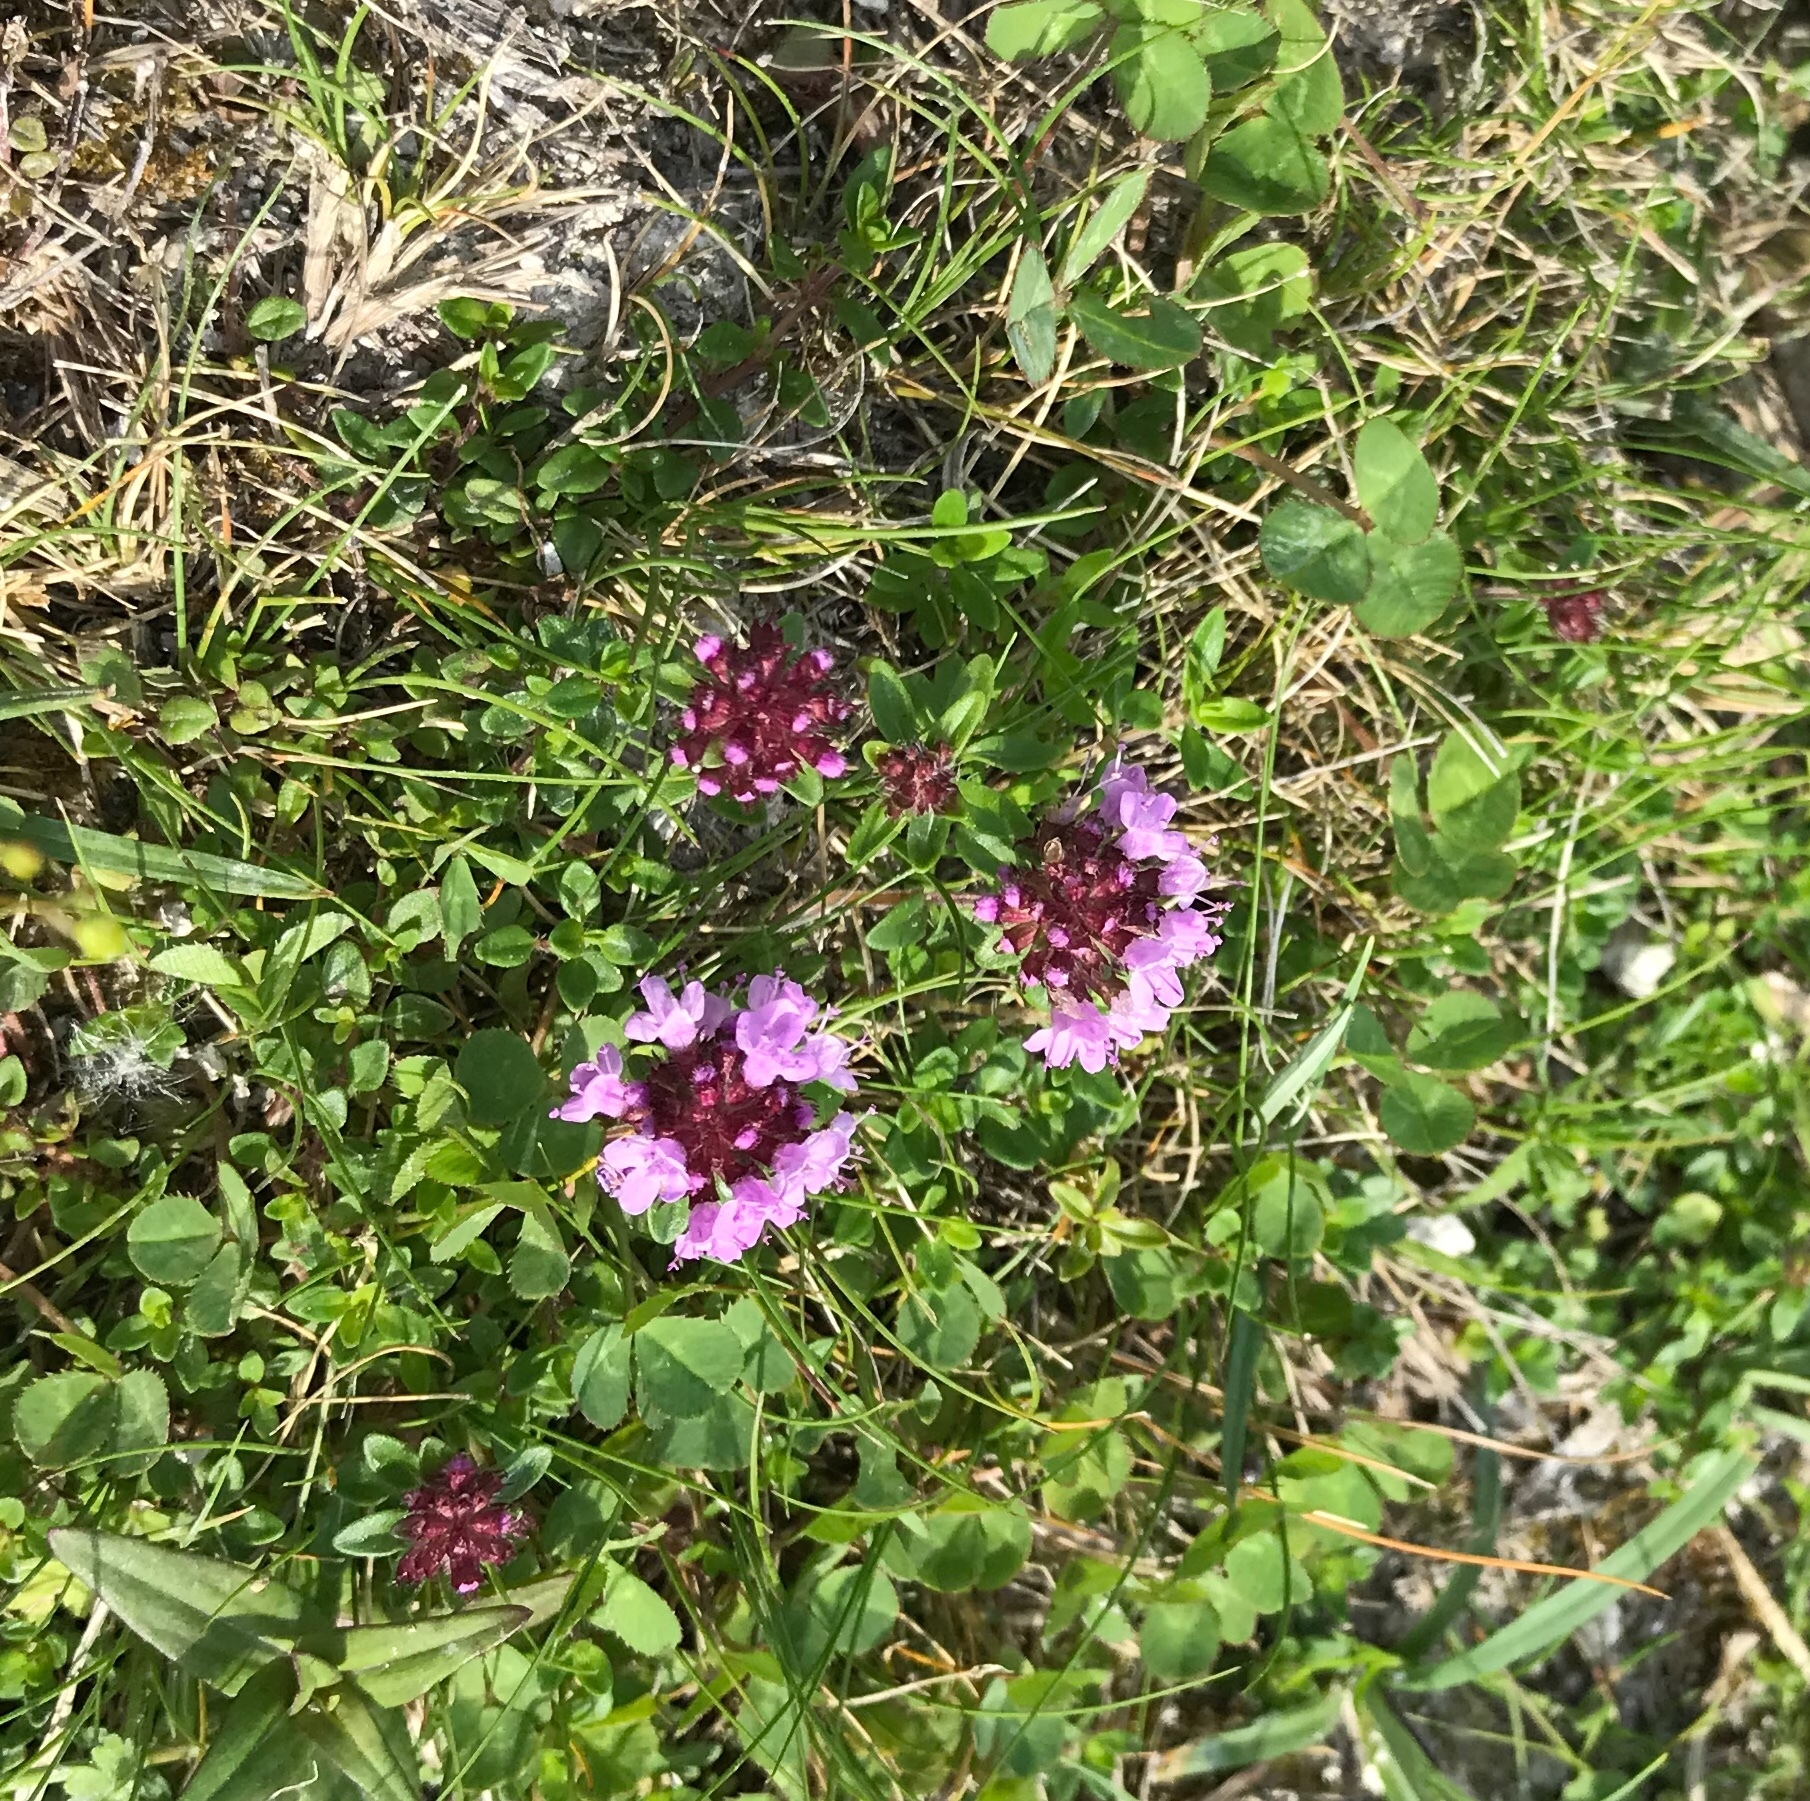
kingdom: Plantae
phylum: Tracheophyta
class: Magnoliopsida
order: Lamiales
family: Lamiaceae
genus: Thymus
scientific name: Thymus praecox
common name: Wild thyme
